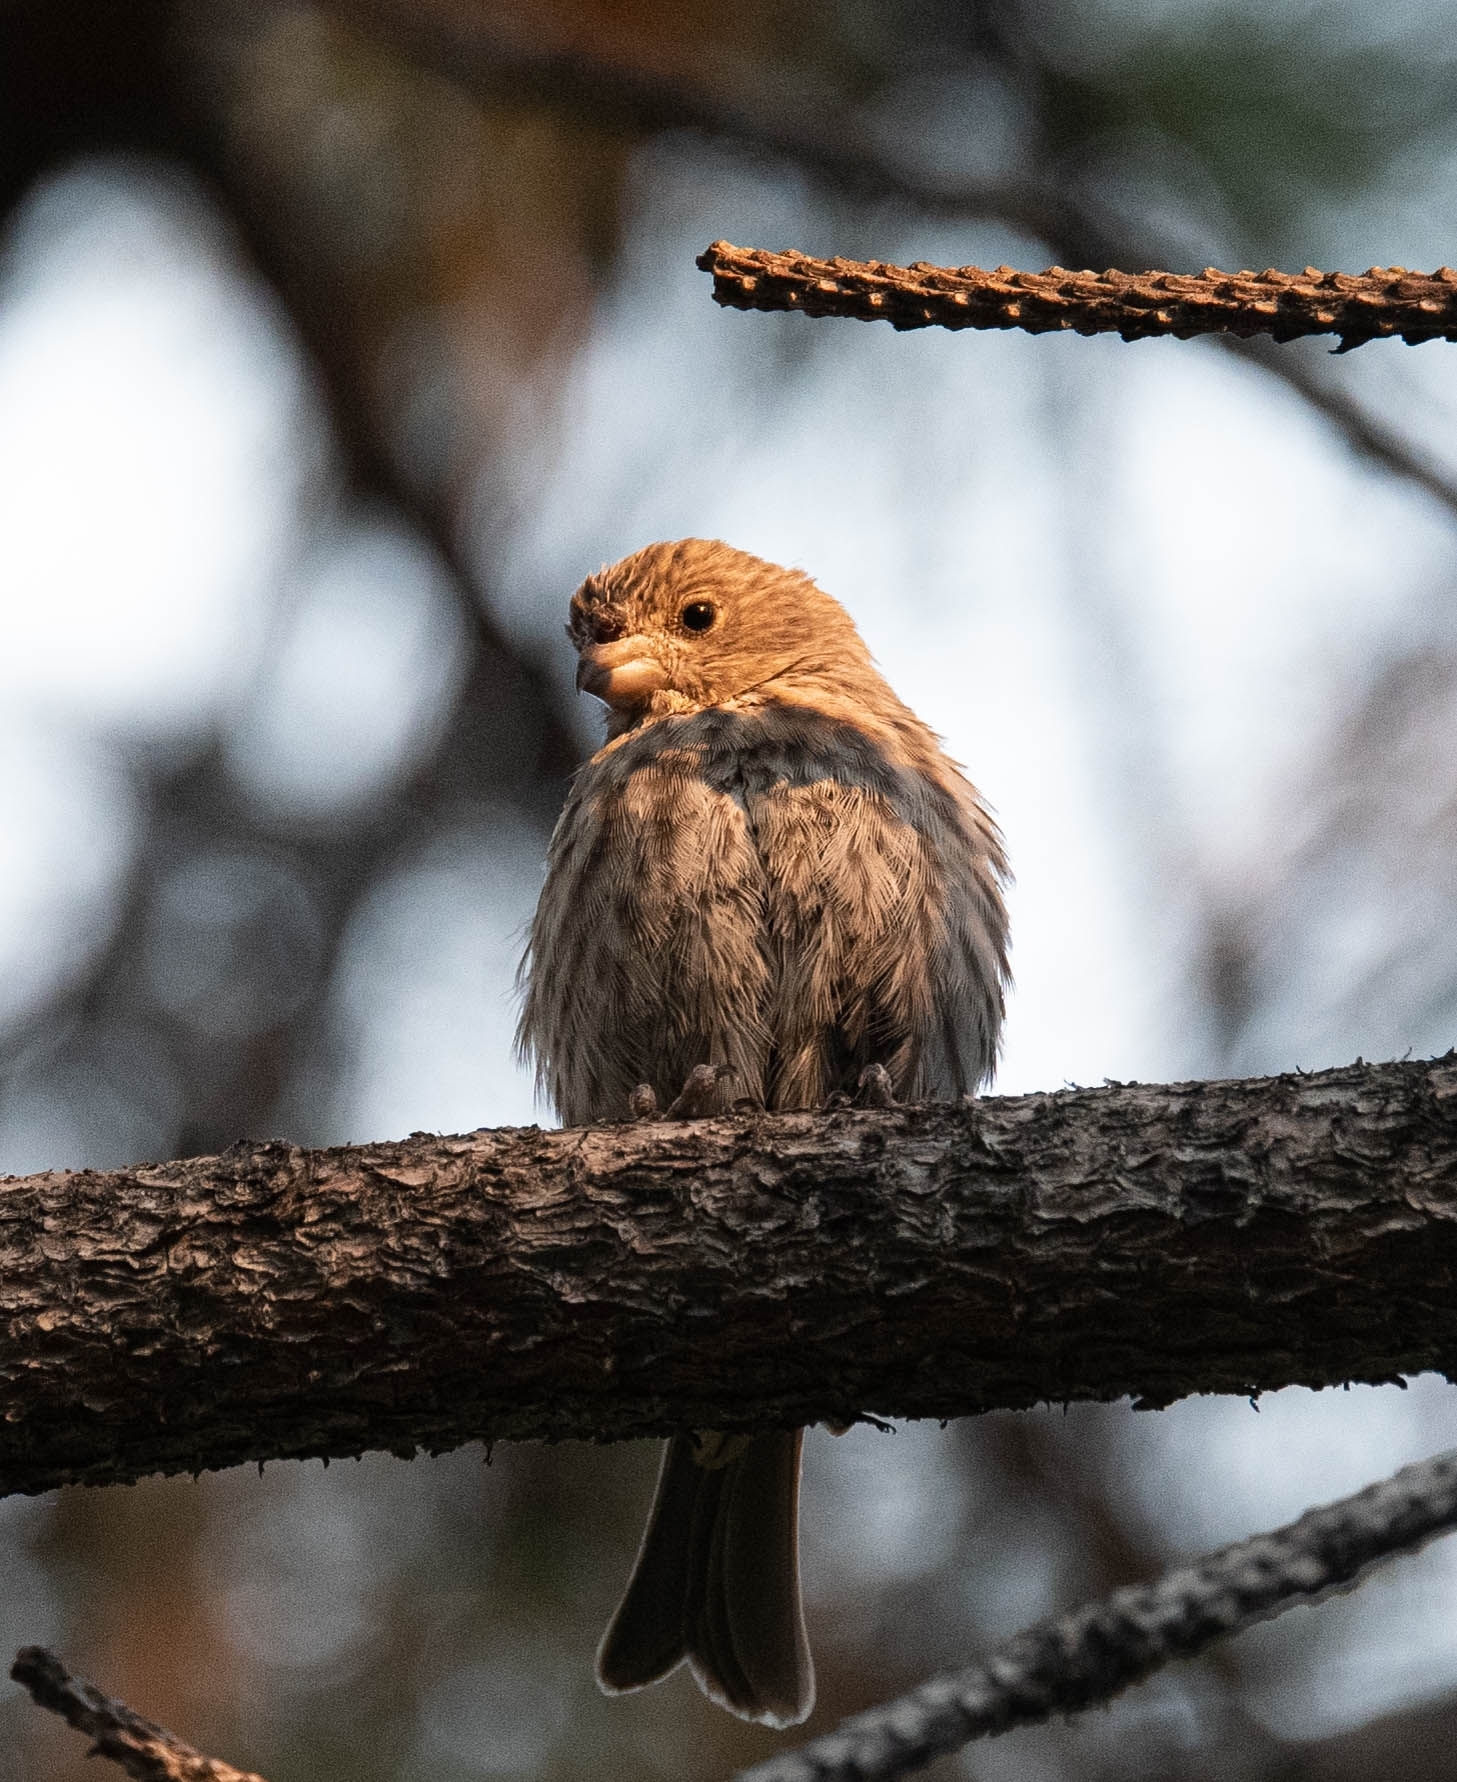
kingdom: Animalia
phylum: Chordata
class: Aves
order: Passeriformes
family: Fringillidae
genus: Haemorhous
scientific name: Haemorhous mexicanus
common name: House finch
